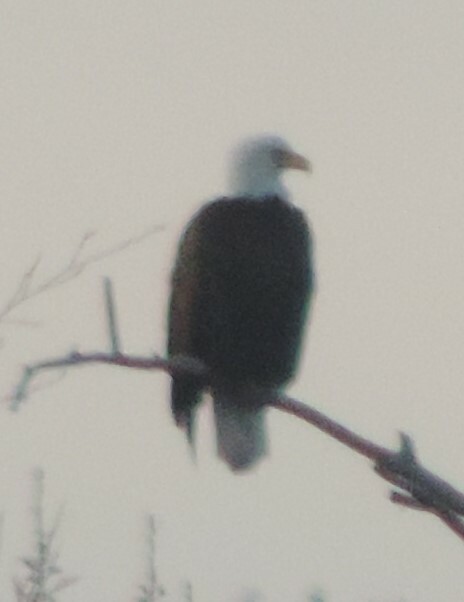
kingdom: Animalia
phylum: Chordata
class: Aves
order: Accipitriformes
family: Accipitridae
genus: Haliaeetus
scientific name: Haliaeetus leucocephalus
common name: Bald eagle
